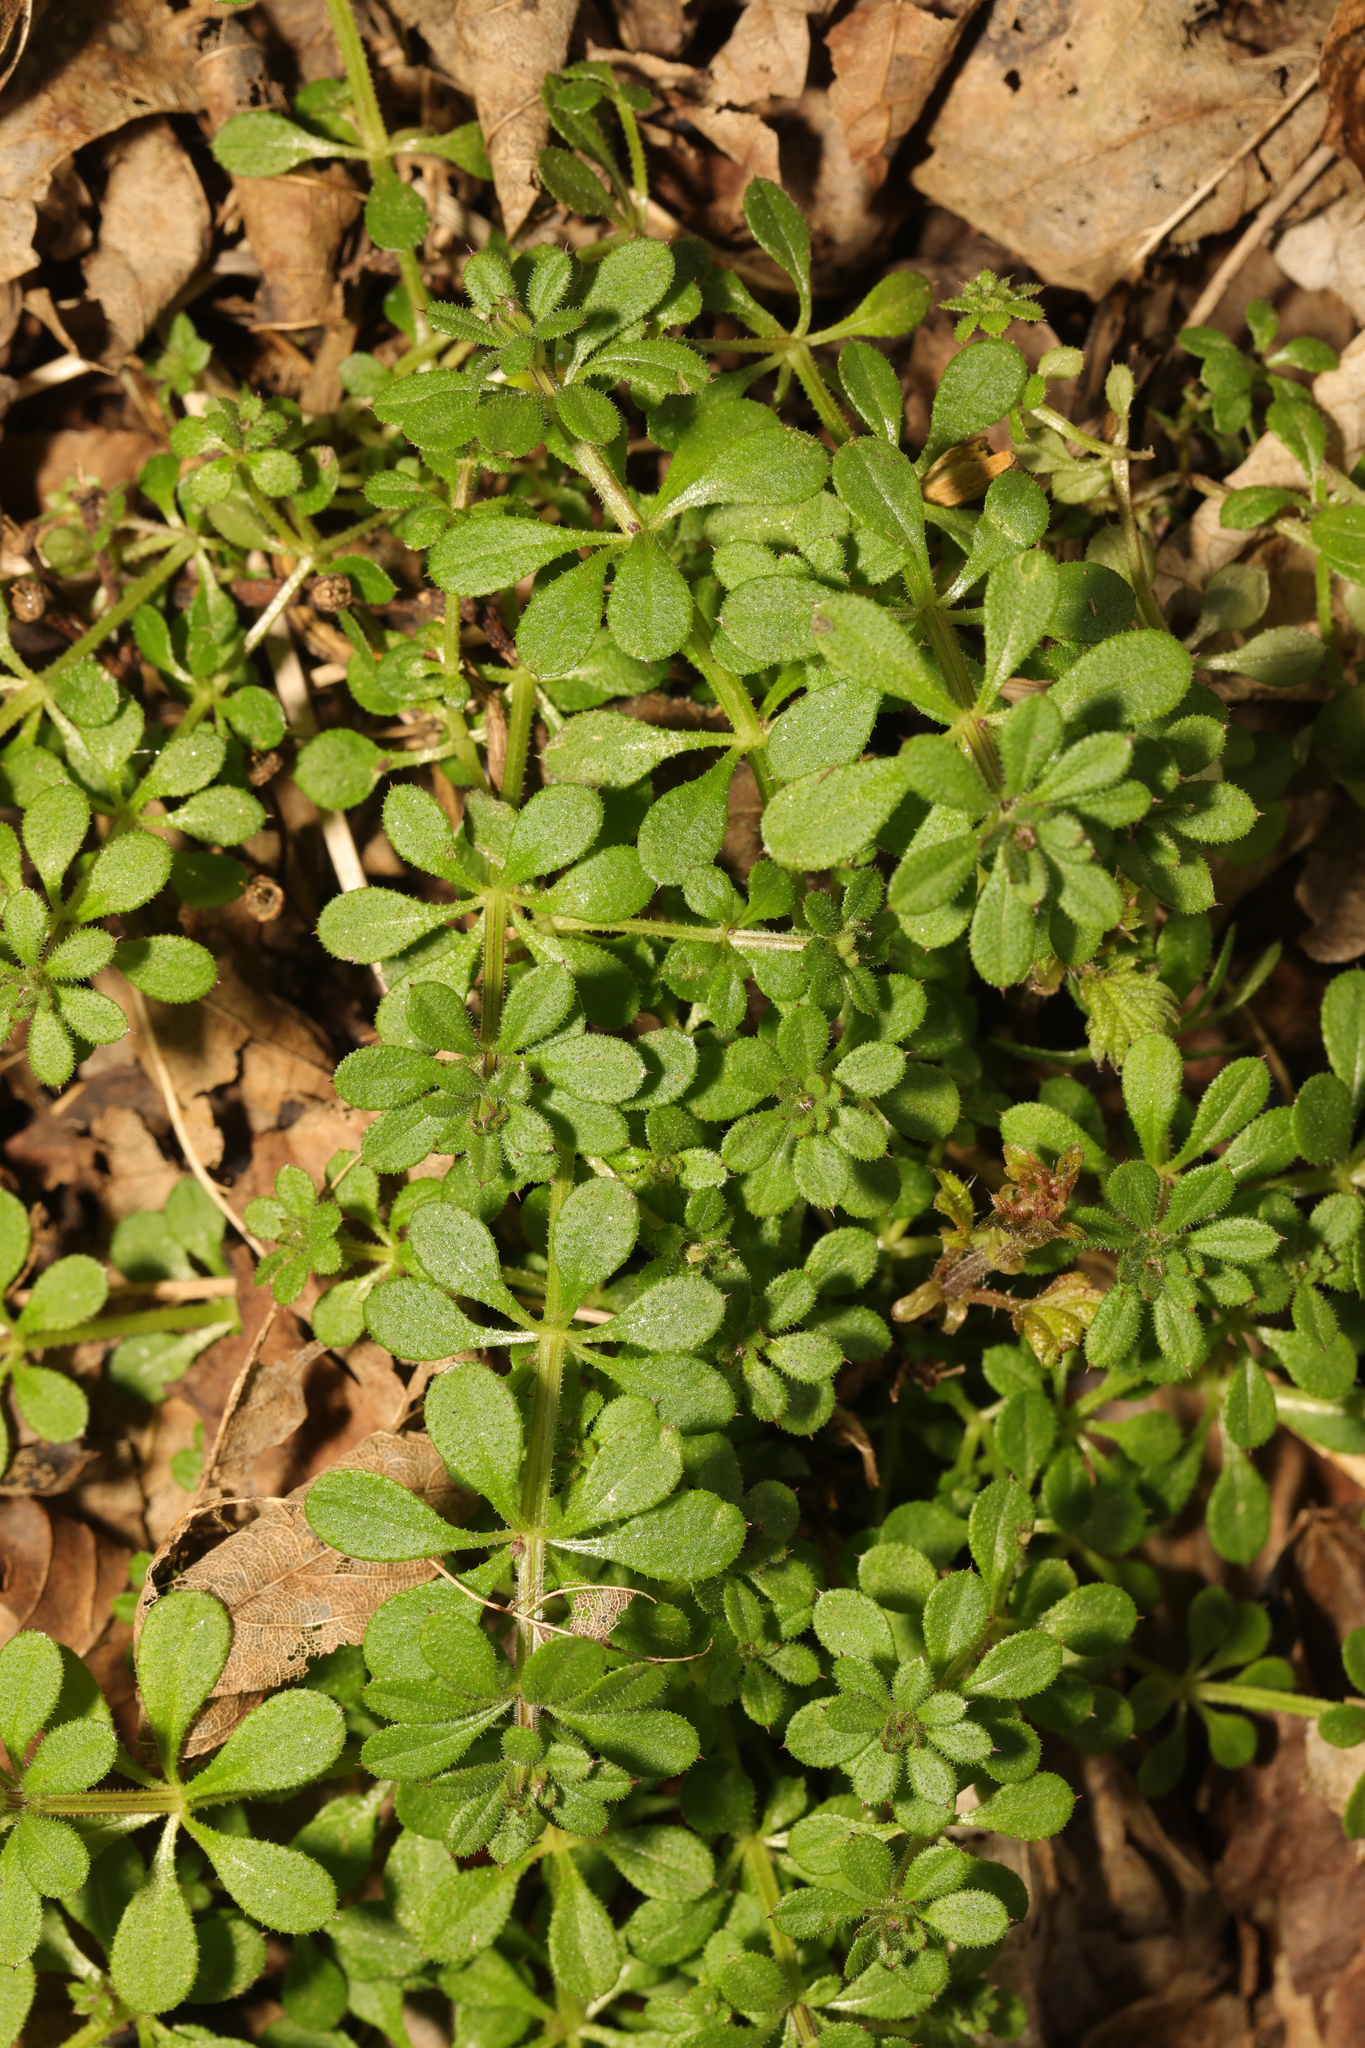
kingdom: Plantae
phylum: Tracheophyta
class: Magnoliopsida
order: Gentianales
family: Rubiaceae
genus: Galium
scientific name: Galium aparine
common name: Cleavers
